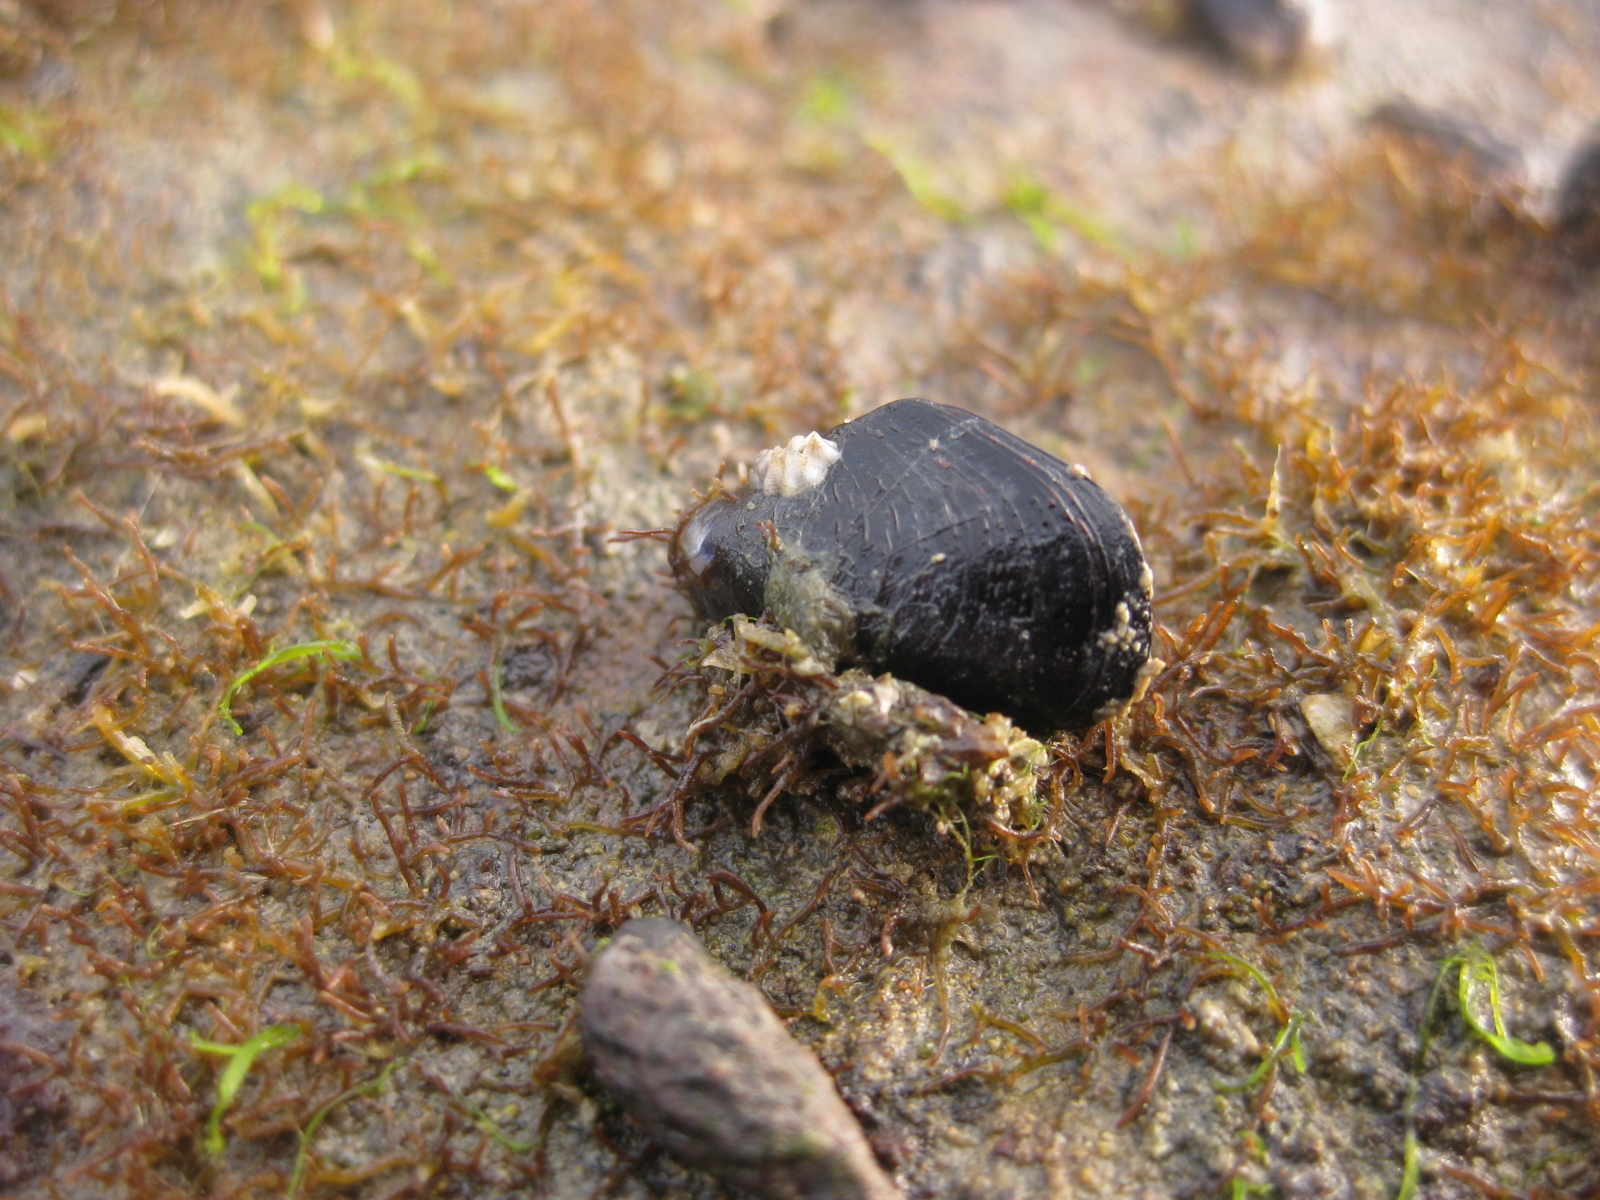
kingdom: Animalia
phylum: Mollusca
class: Bivalvia
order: Mytilida
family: Mytilidae
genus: Xenostrobus
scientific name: Xenostrobus neozelanicus
